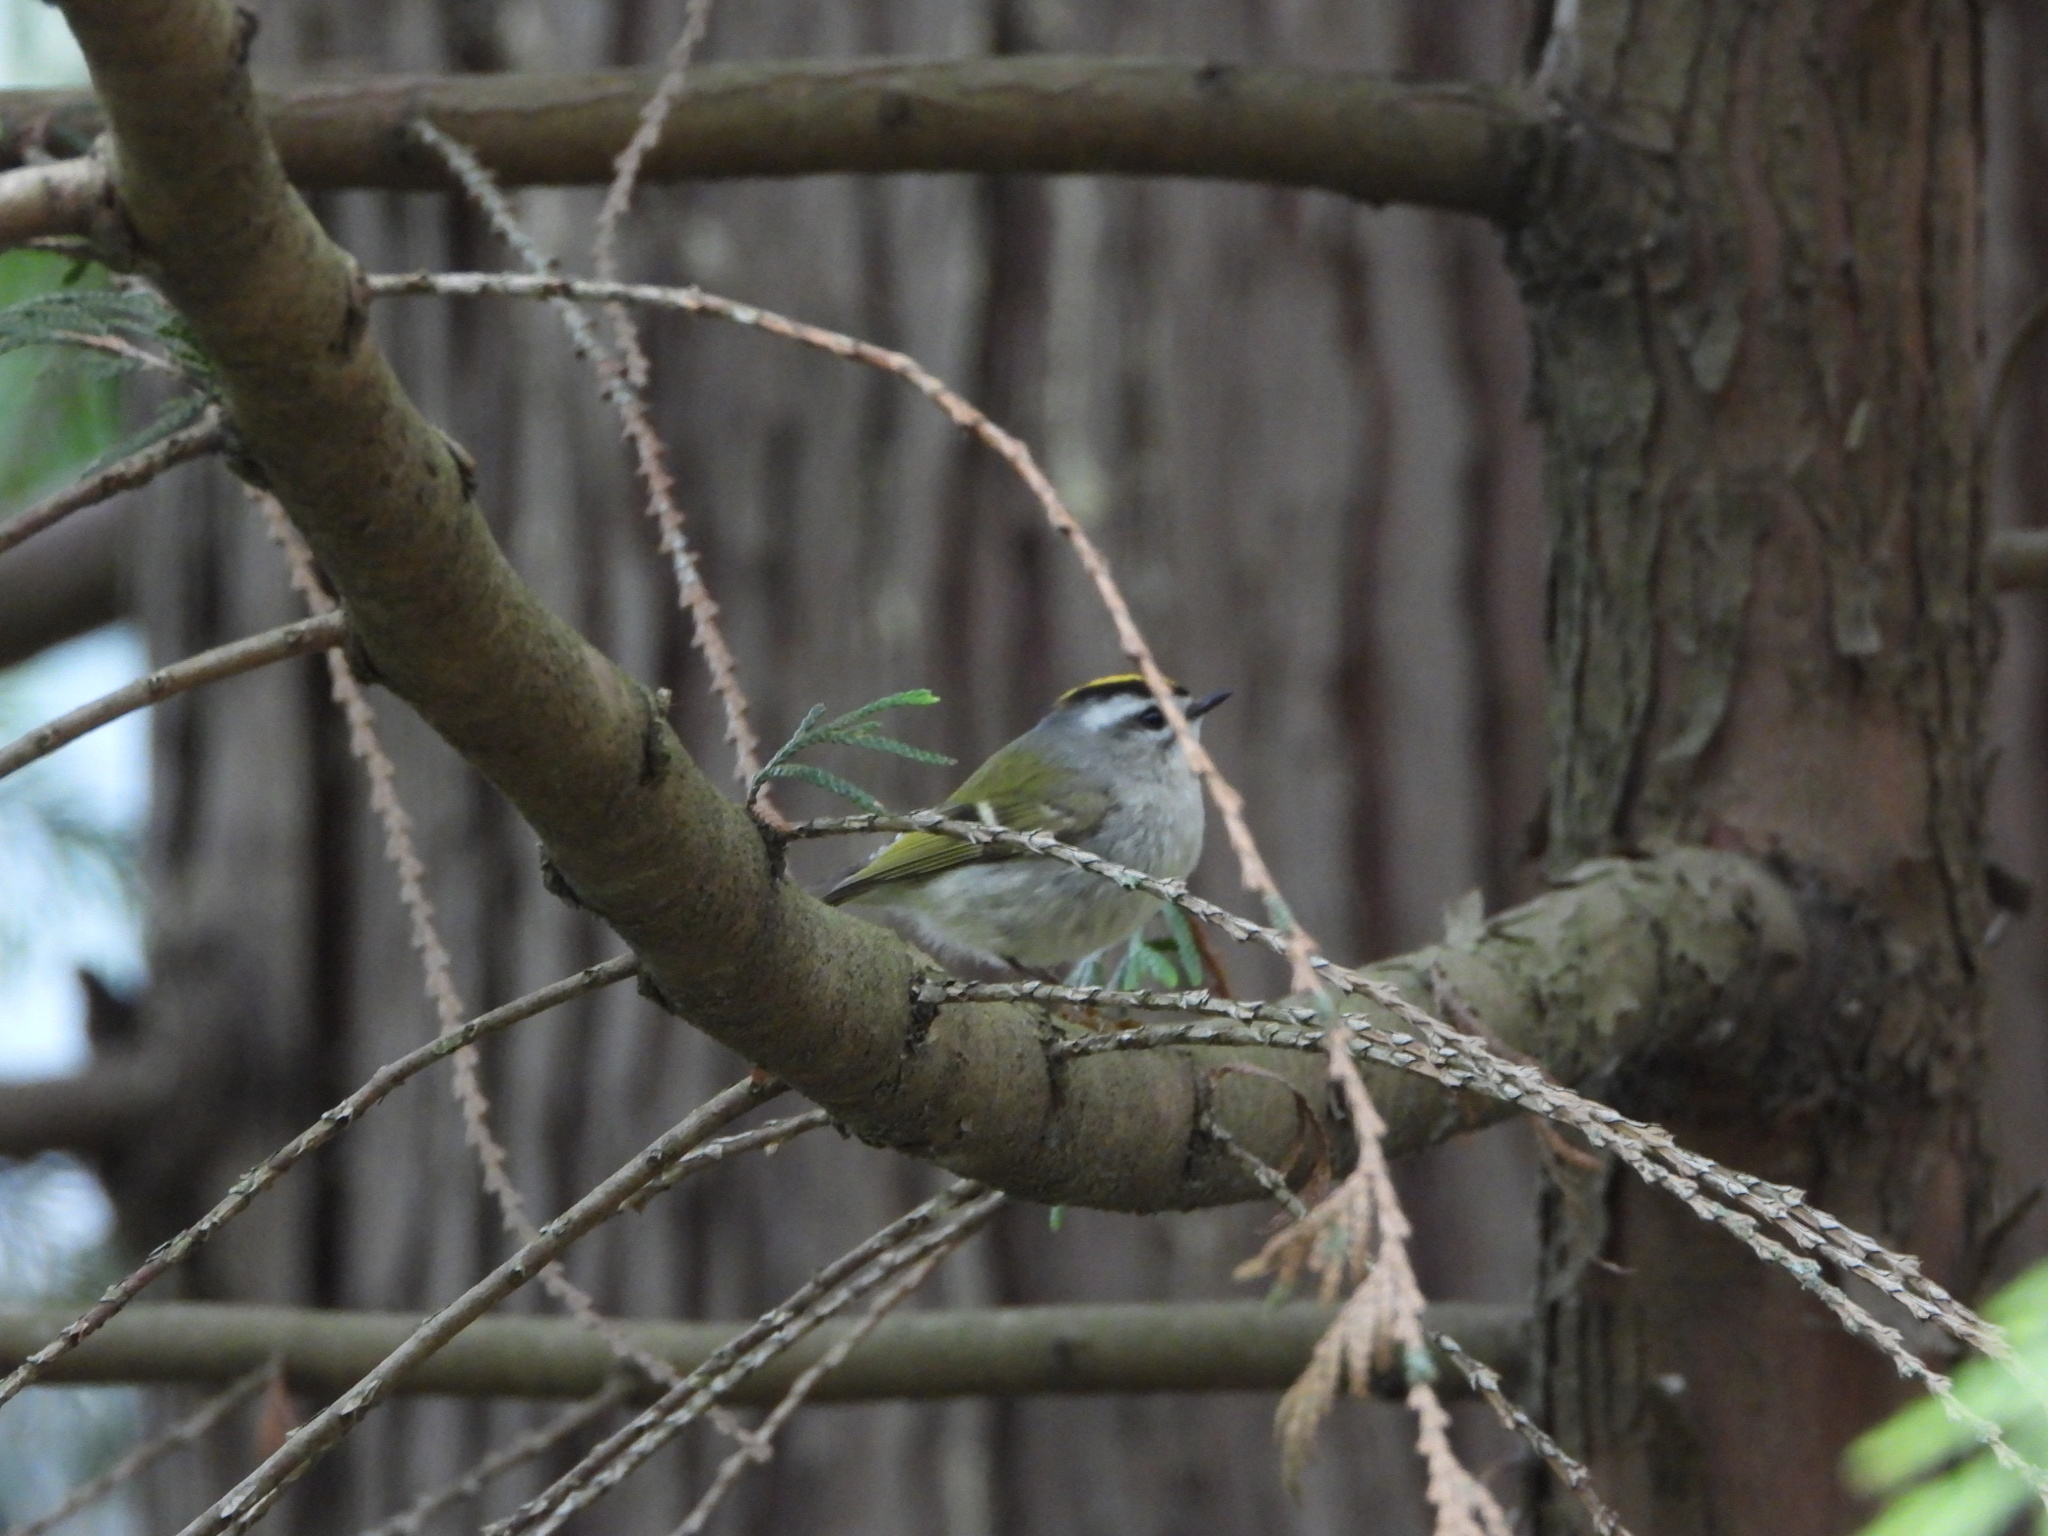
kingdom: Animalia
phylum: Chordata
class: Aves
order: Passeriformes
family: Regulidae
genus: Regulus
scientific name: Regulus satrapa
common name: Golden-crowned kinglet
